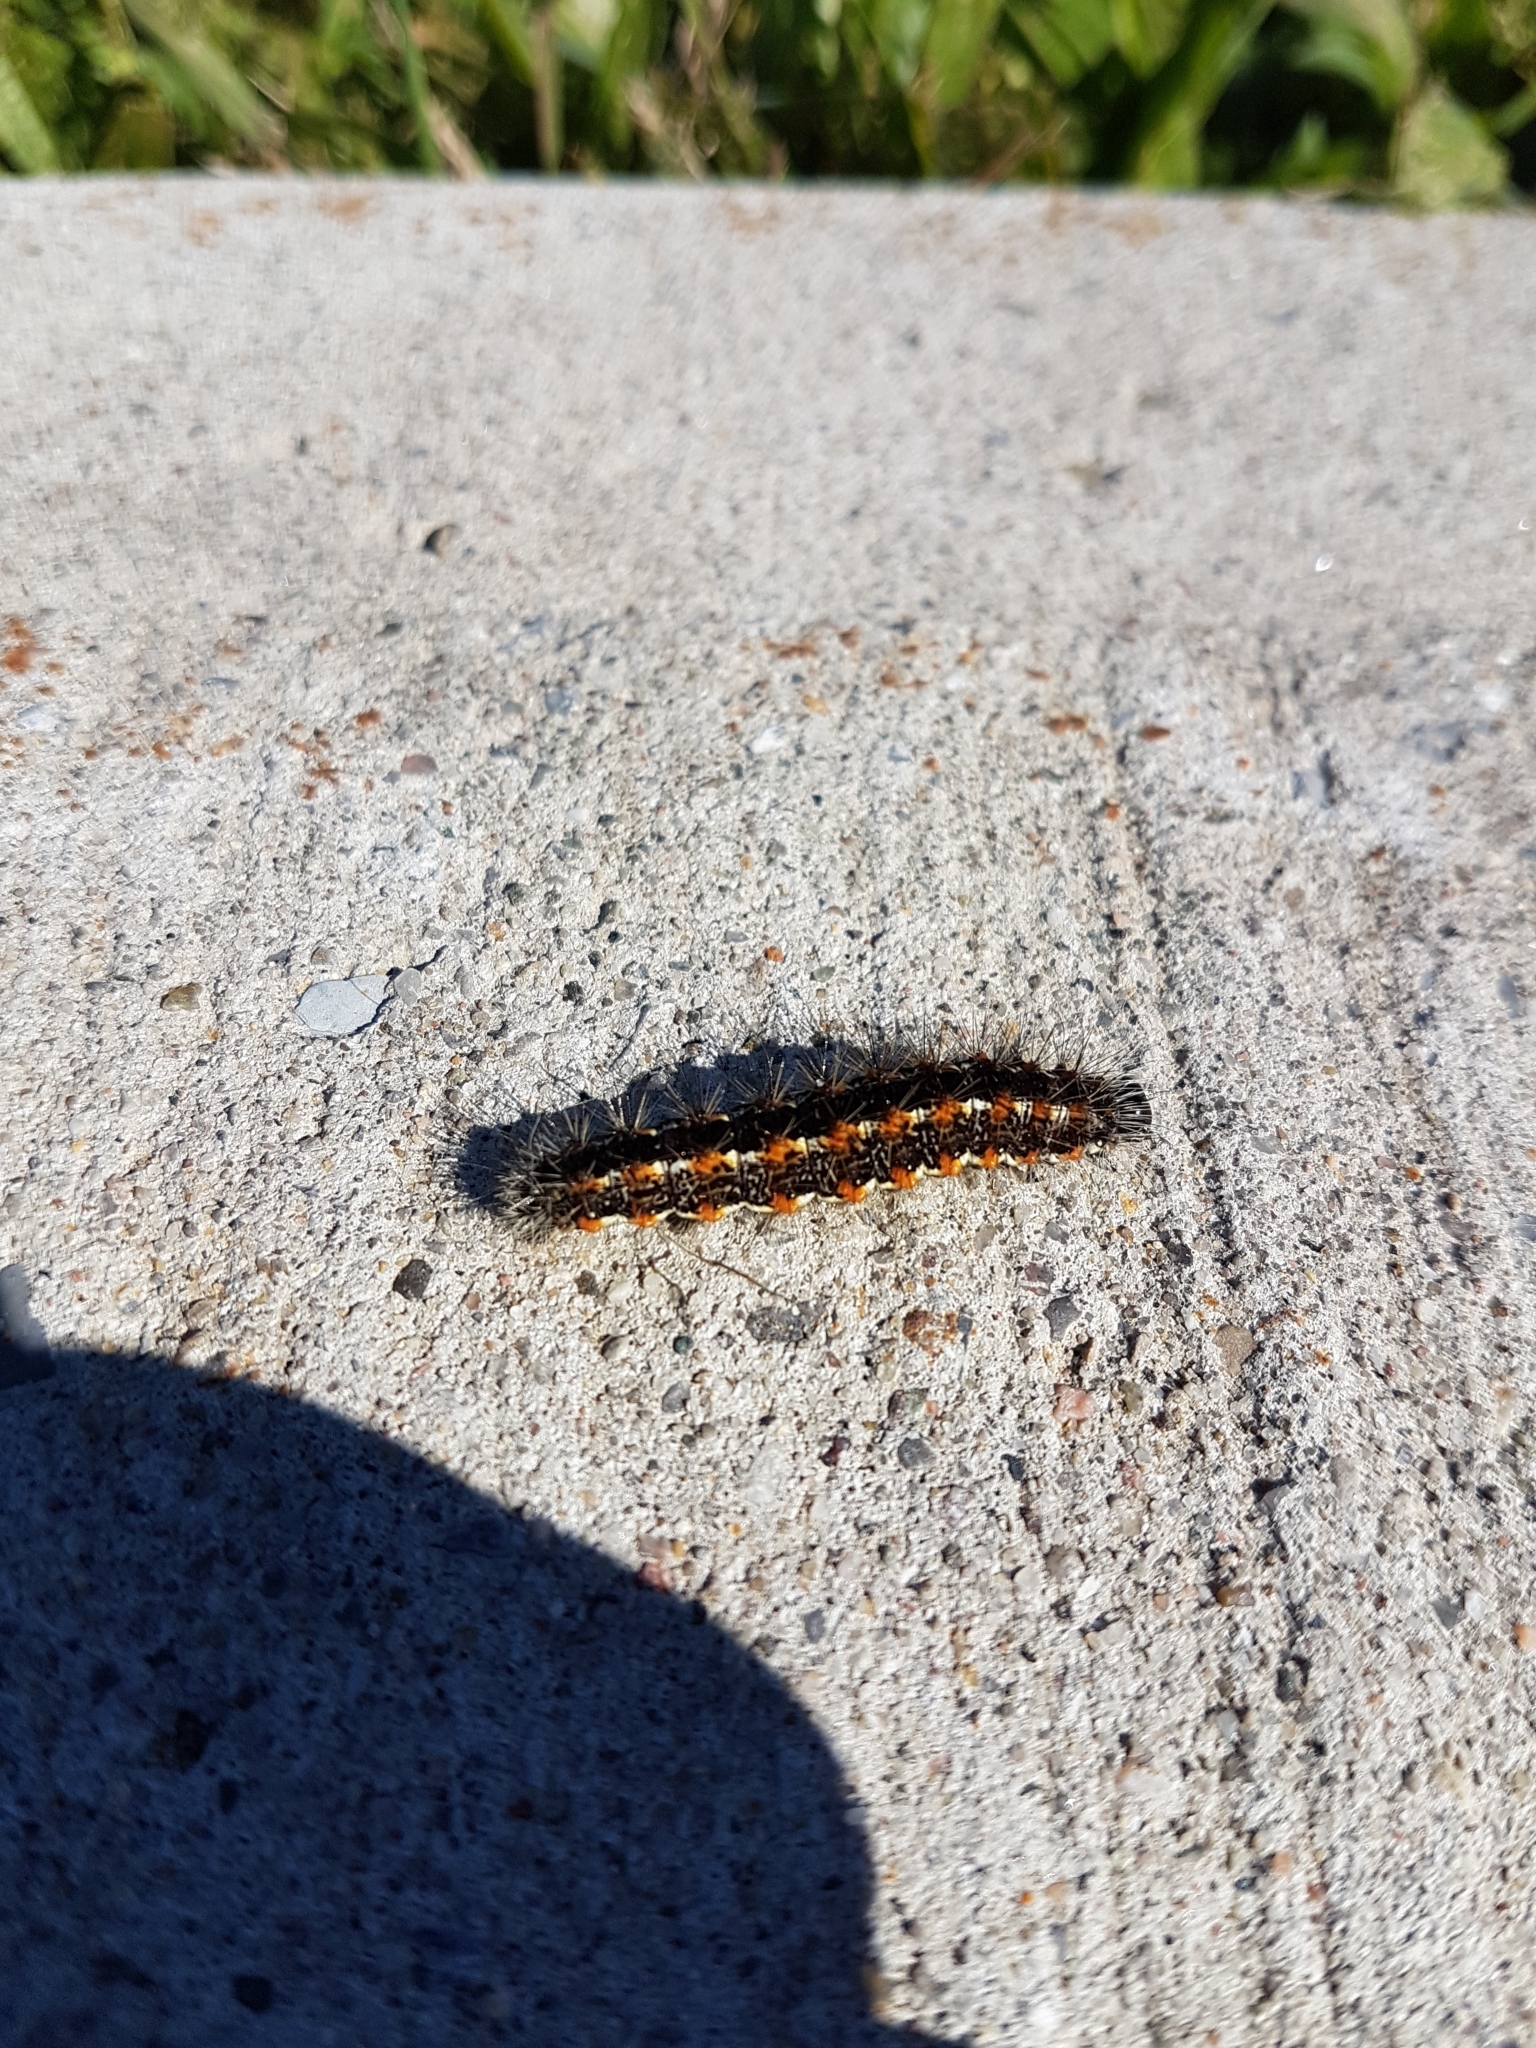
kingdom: Animalia
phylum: Arthropoda
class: Insecta
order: Lepidoptera
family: Noctuidae
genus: Acronicta
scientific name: Acronicta insularis
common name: Henry's marsh moth
